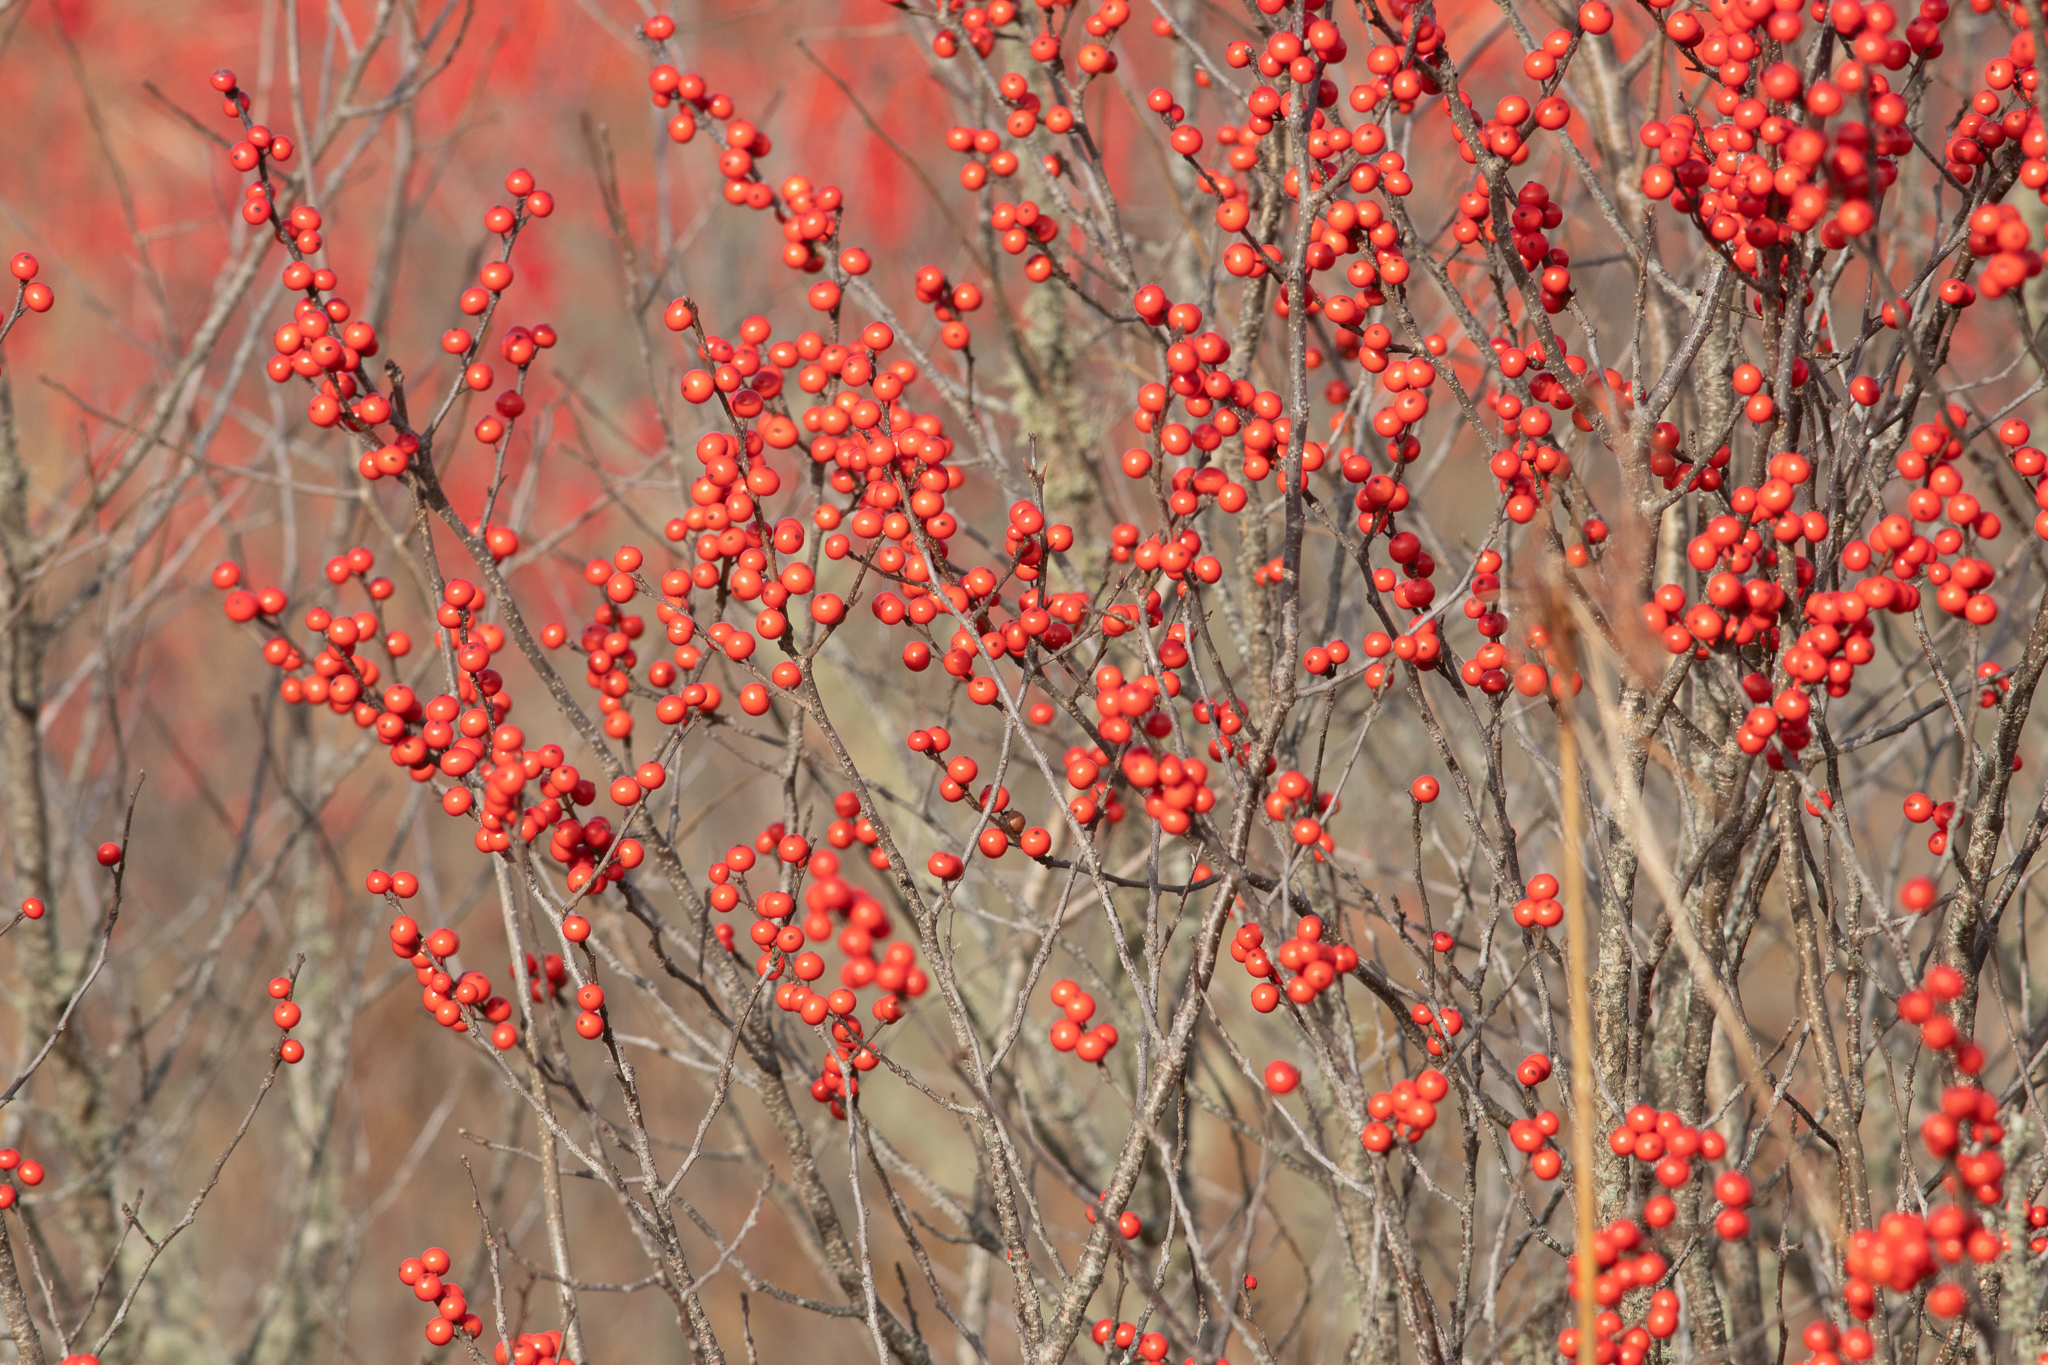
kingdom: Plantae
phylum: Tracheophyta
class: Magnoliopsida
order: Aquifoliales
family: Aquifoliaceae
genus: Ilex
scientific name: Ilex verticillata
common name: Virginia winterberry
